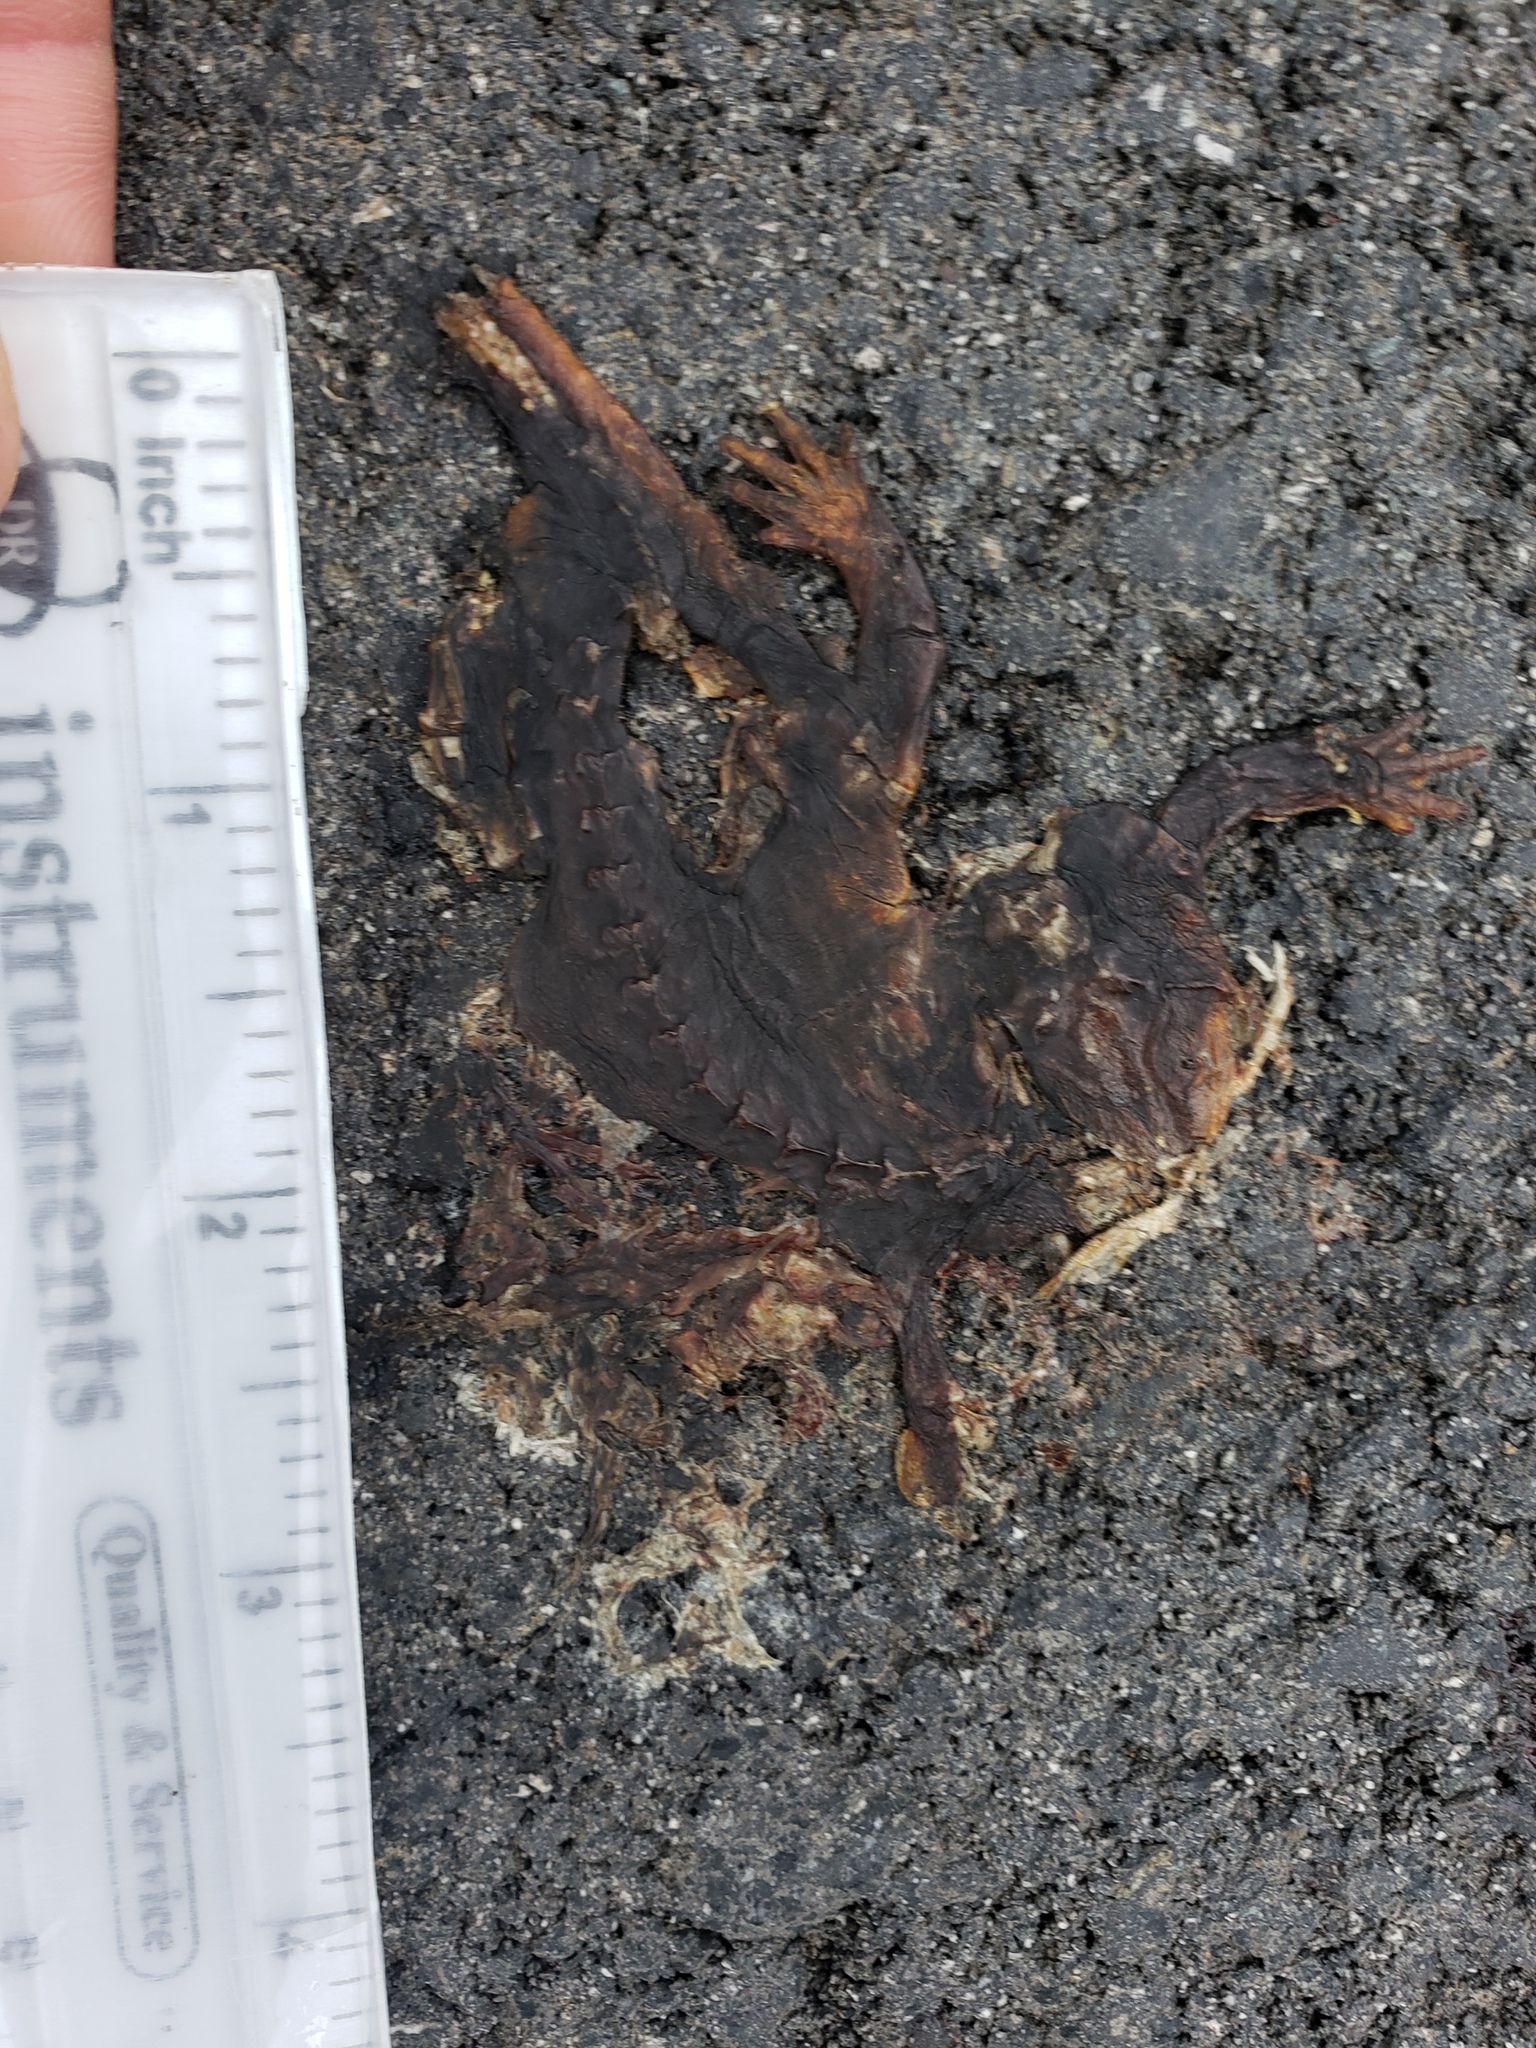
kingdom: Animalia
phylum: Chordata
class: Amphibia
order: Caudata
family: Salamandridae
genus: Taricha
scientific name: Taricha
